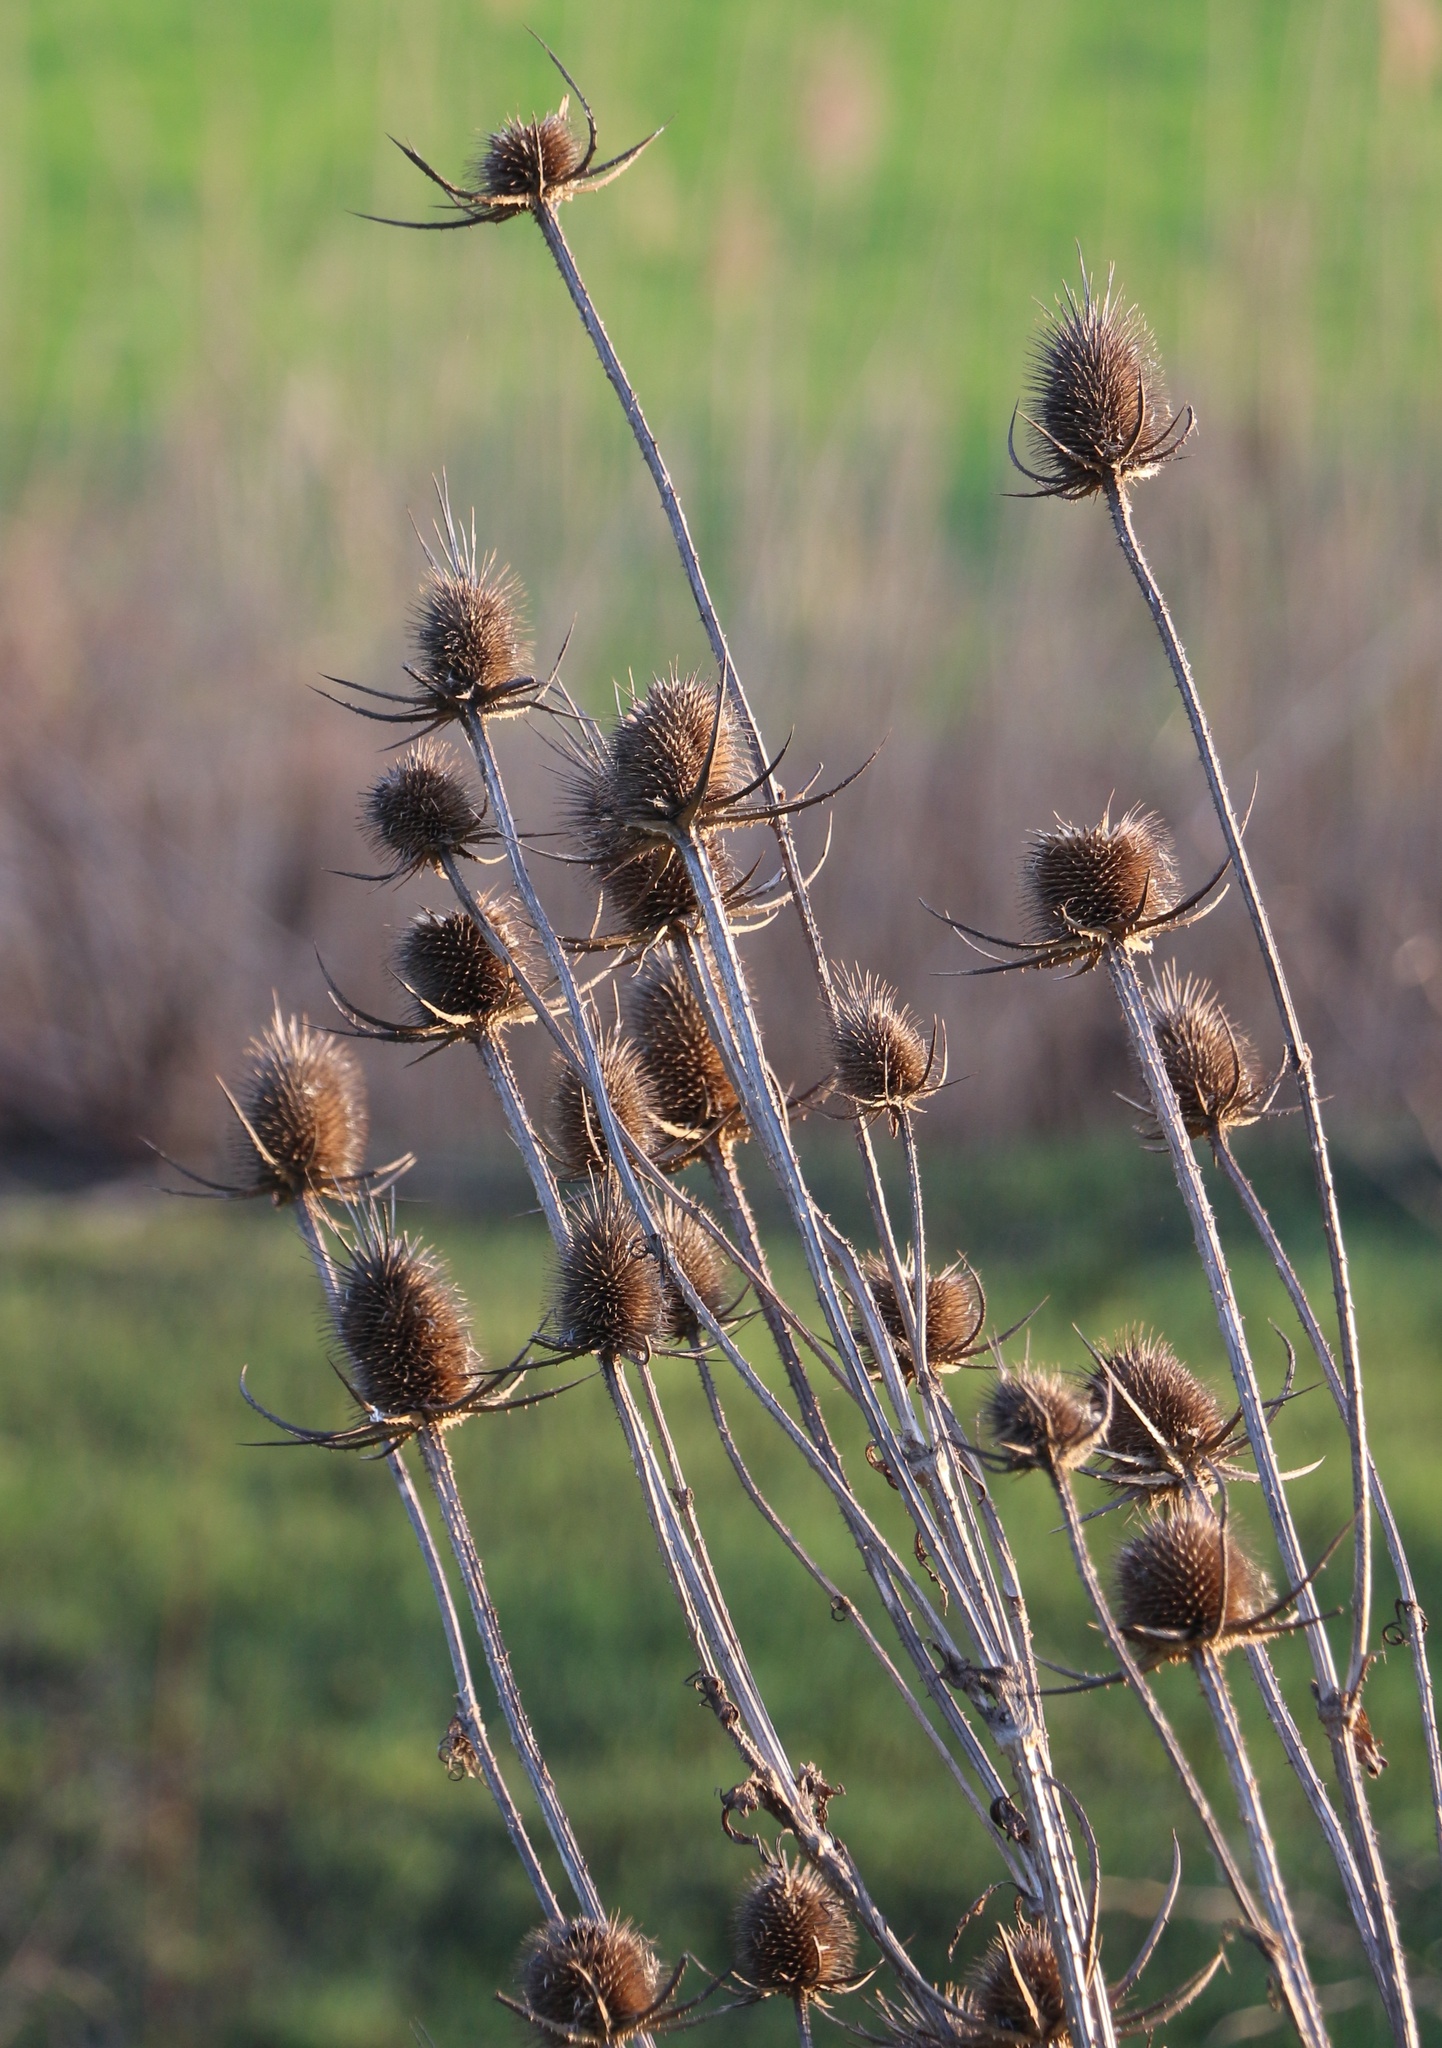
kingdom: Plantae
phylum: Tracheophyta
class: Magnoliopsida
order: Dipsacales
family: Caprifoliaceae
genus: Dipsacus
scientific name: Dipsacus laciniatus
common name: Cut-leaved teasel
